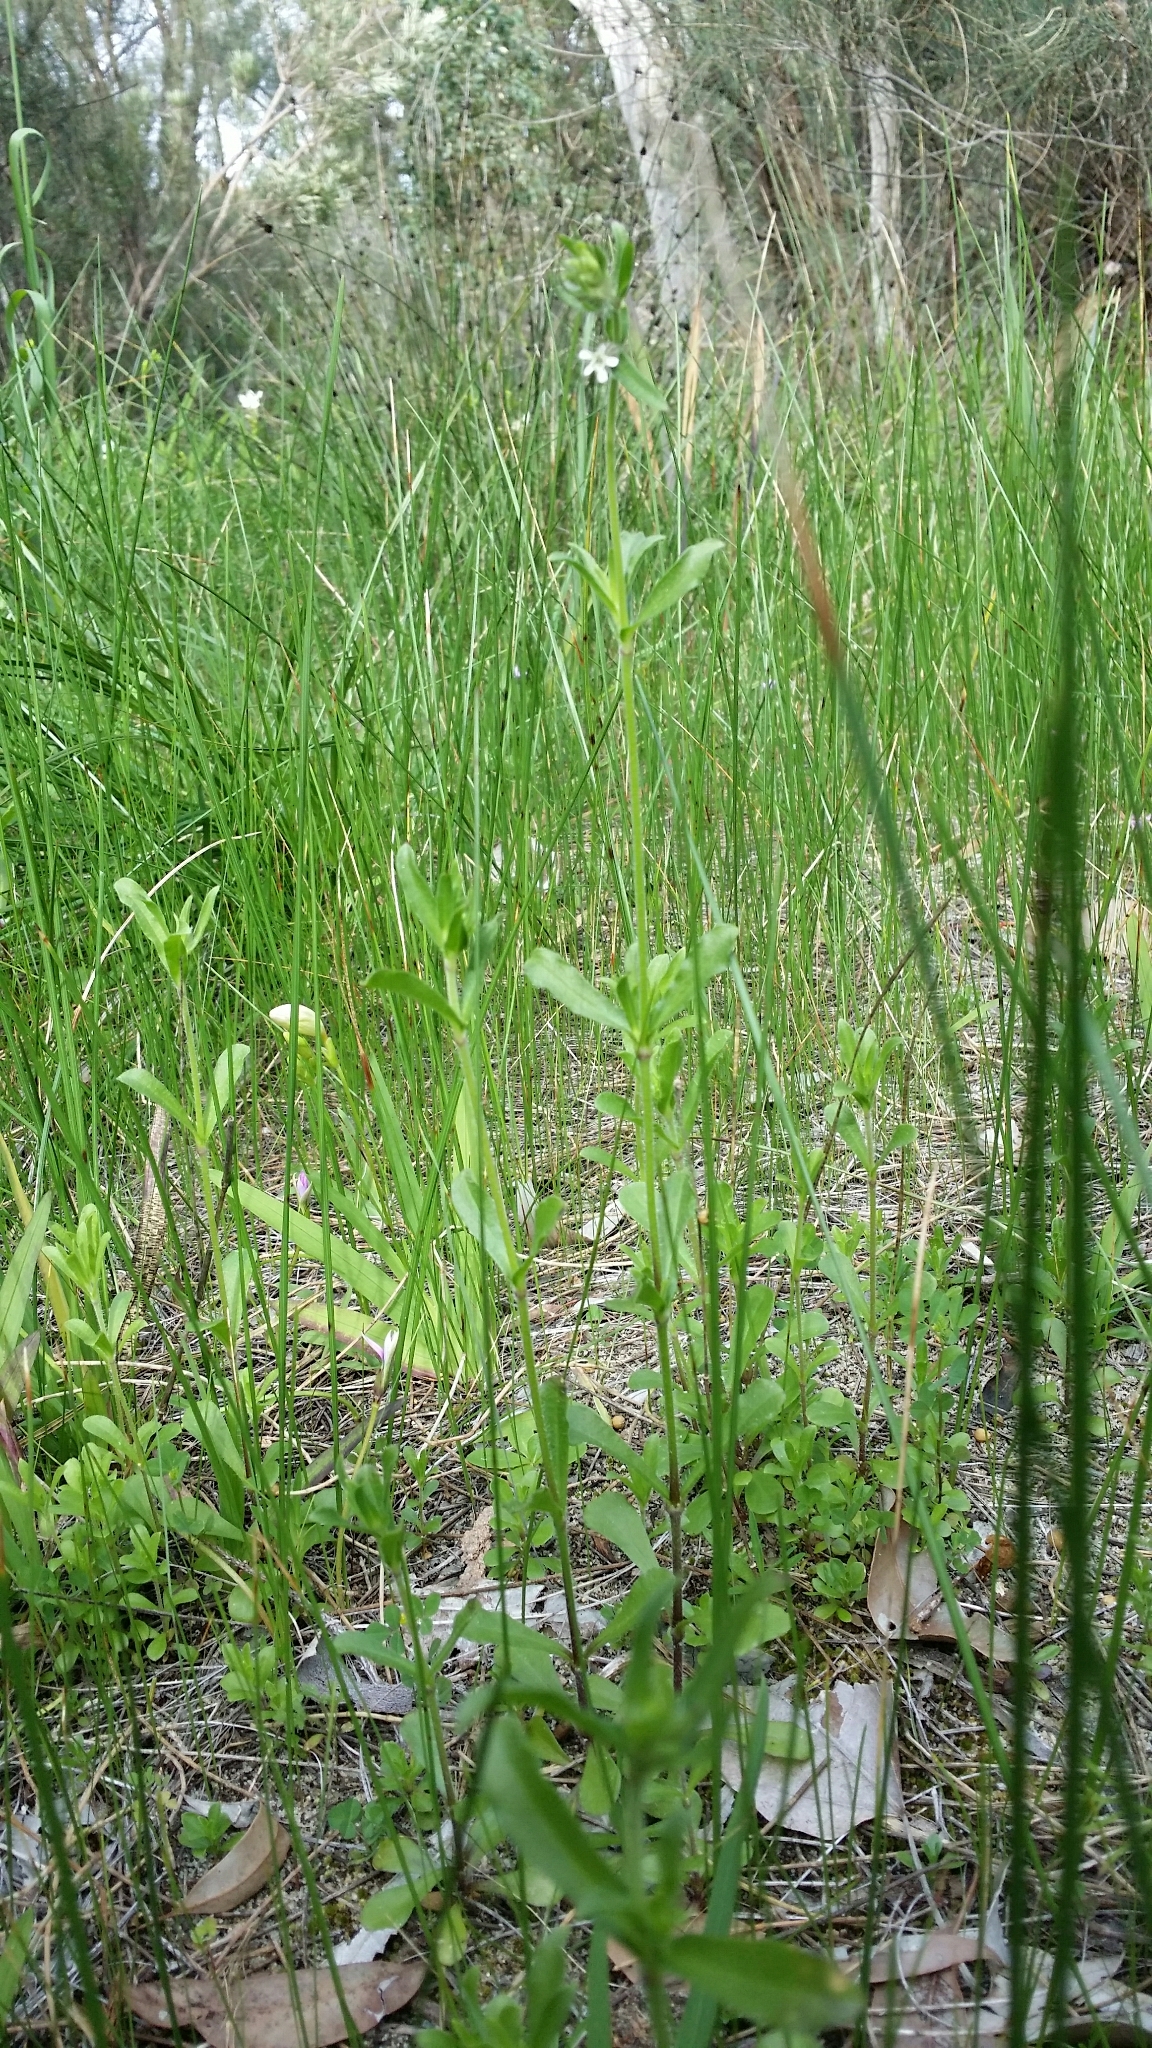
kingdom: Plantae
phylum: Tracheophyta
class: Magnoliopsida
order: Caryophyllales
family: Caryophyllaceae
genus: Silene
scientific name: Silene gallica
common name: Small-flowered catchfly
